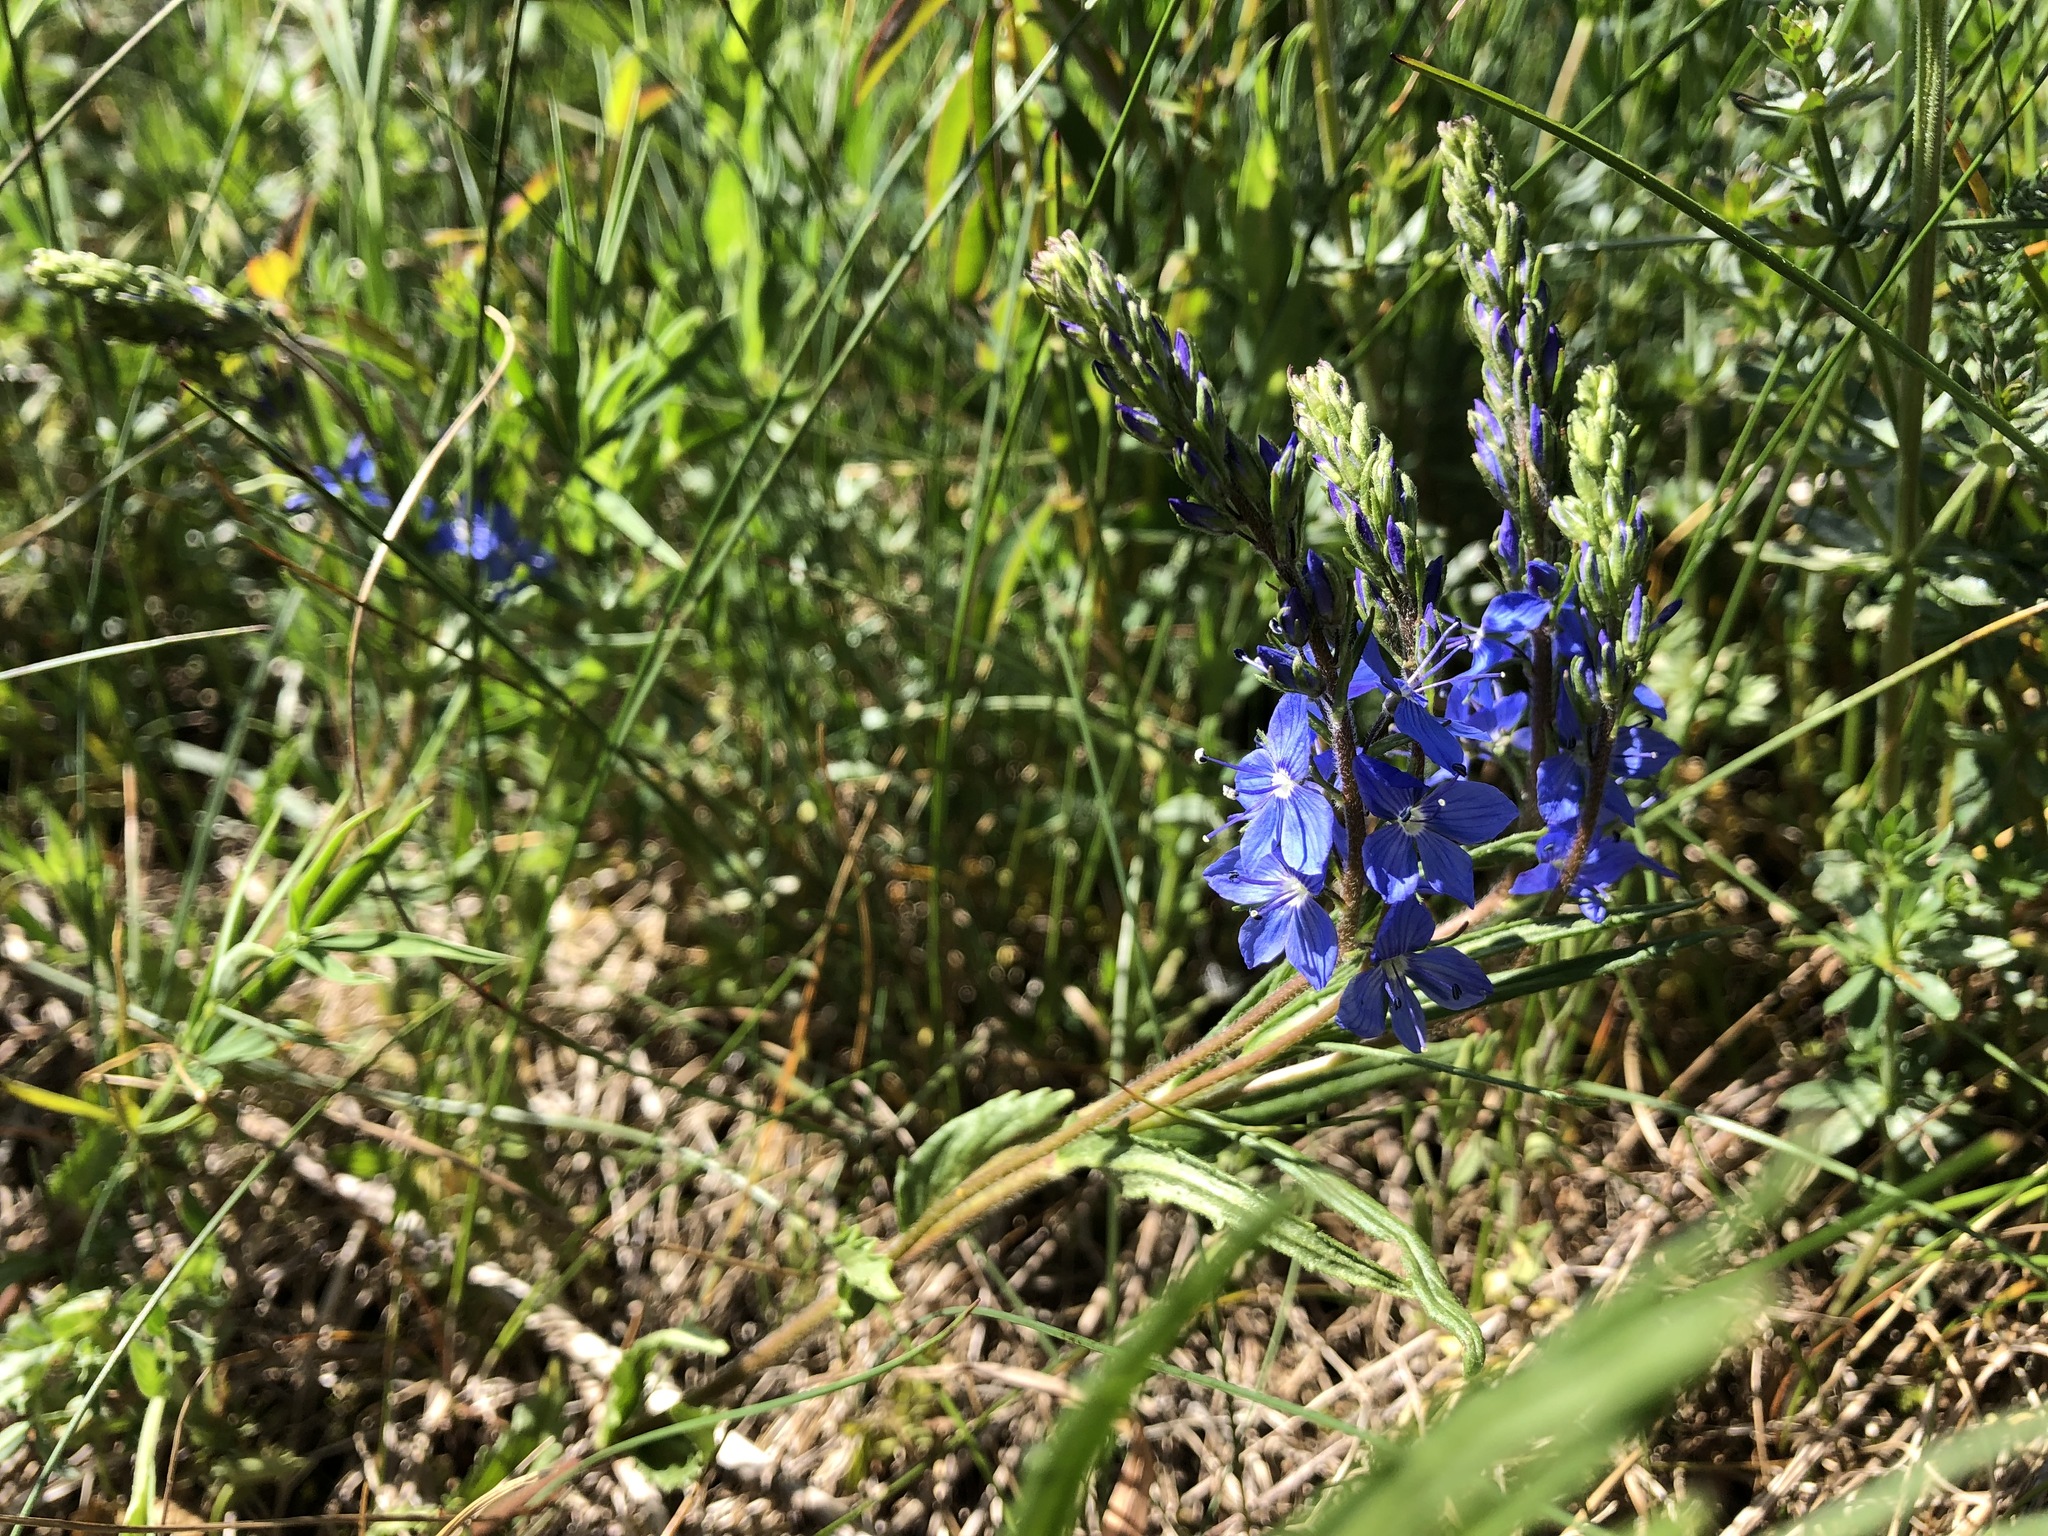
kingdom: Plantae
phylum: Tracheophyta
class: Magnoliopsida
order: Lamiales
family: Plantaginaceae
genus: Veronica
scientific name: Veronica teucrium
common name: Large speedwell
